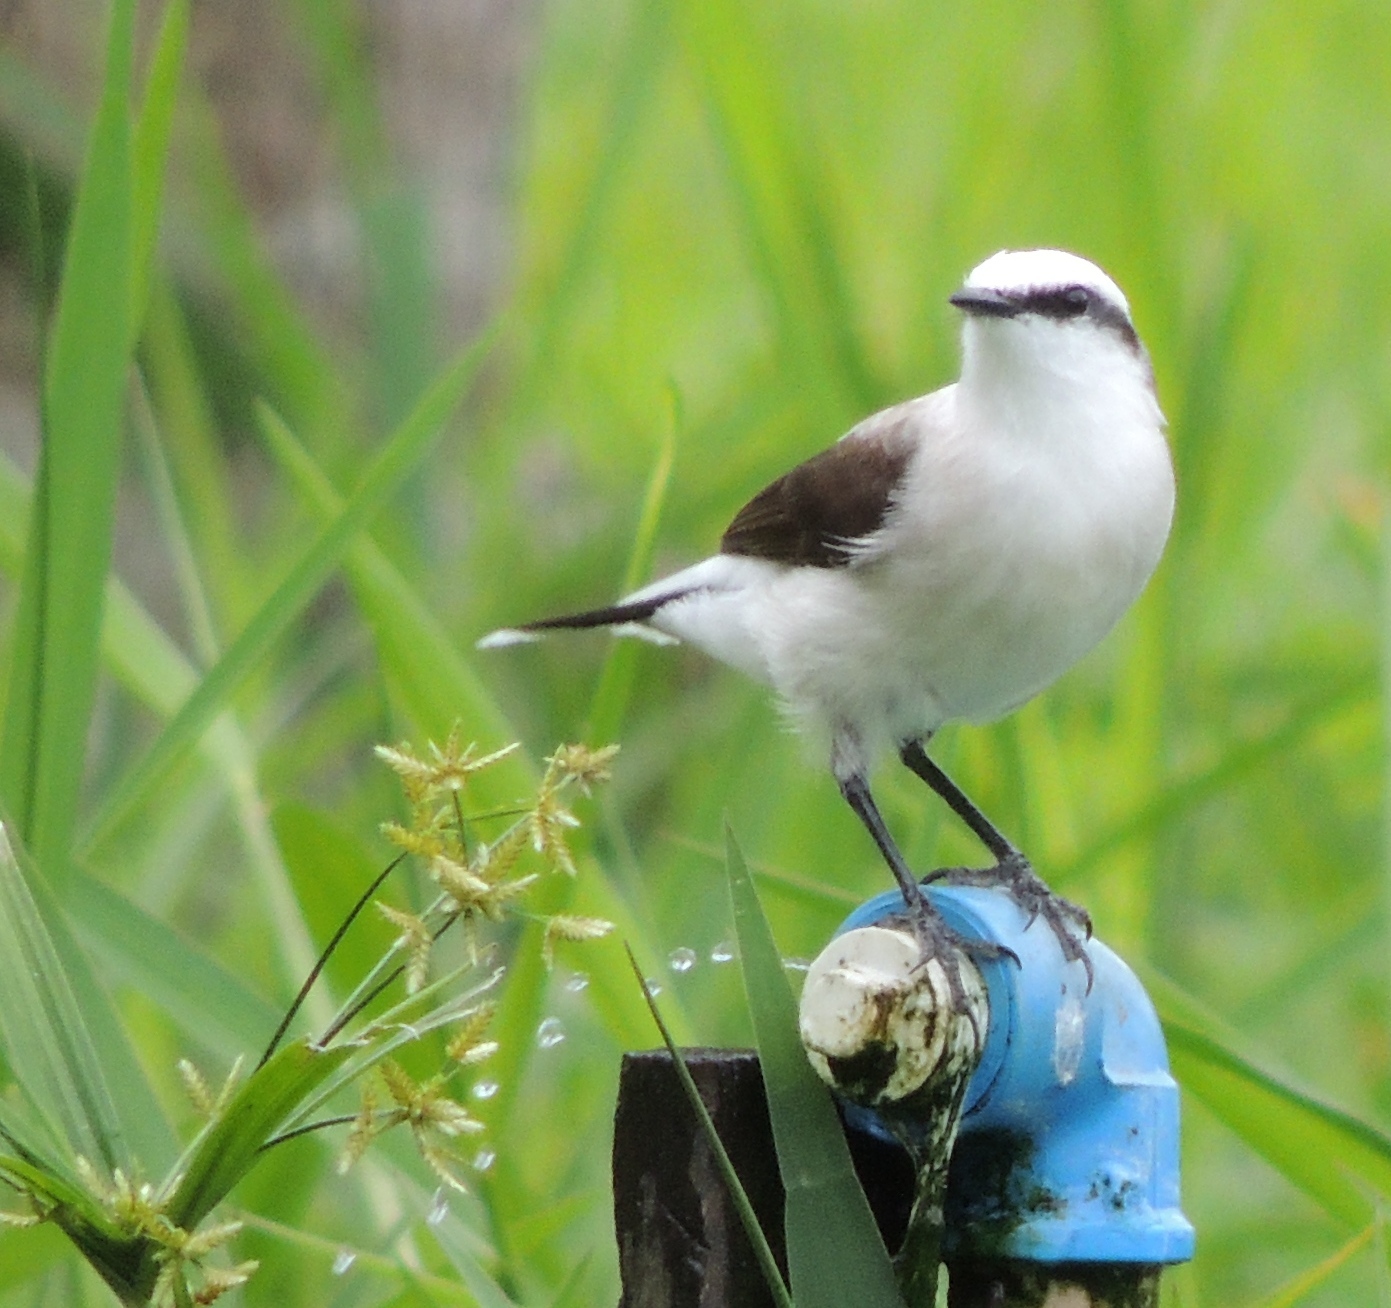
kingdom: Animalia
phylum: Chordata
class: Aves
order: Passeriformes
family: Tyrannidae
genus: Fluvicola
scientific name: Fluvicola nengeta
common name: Masked water tyrant
